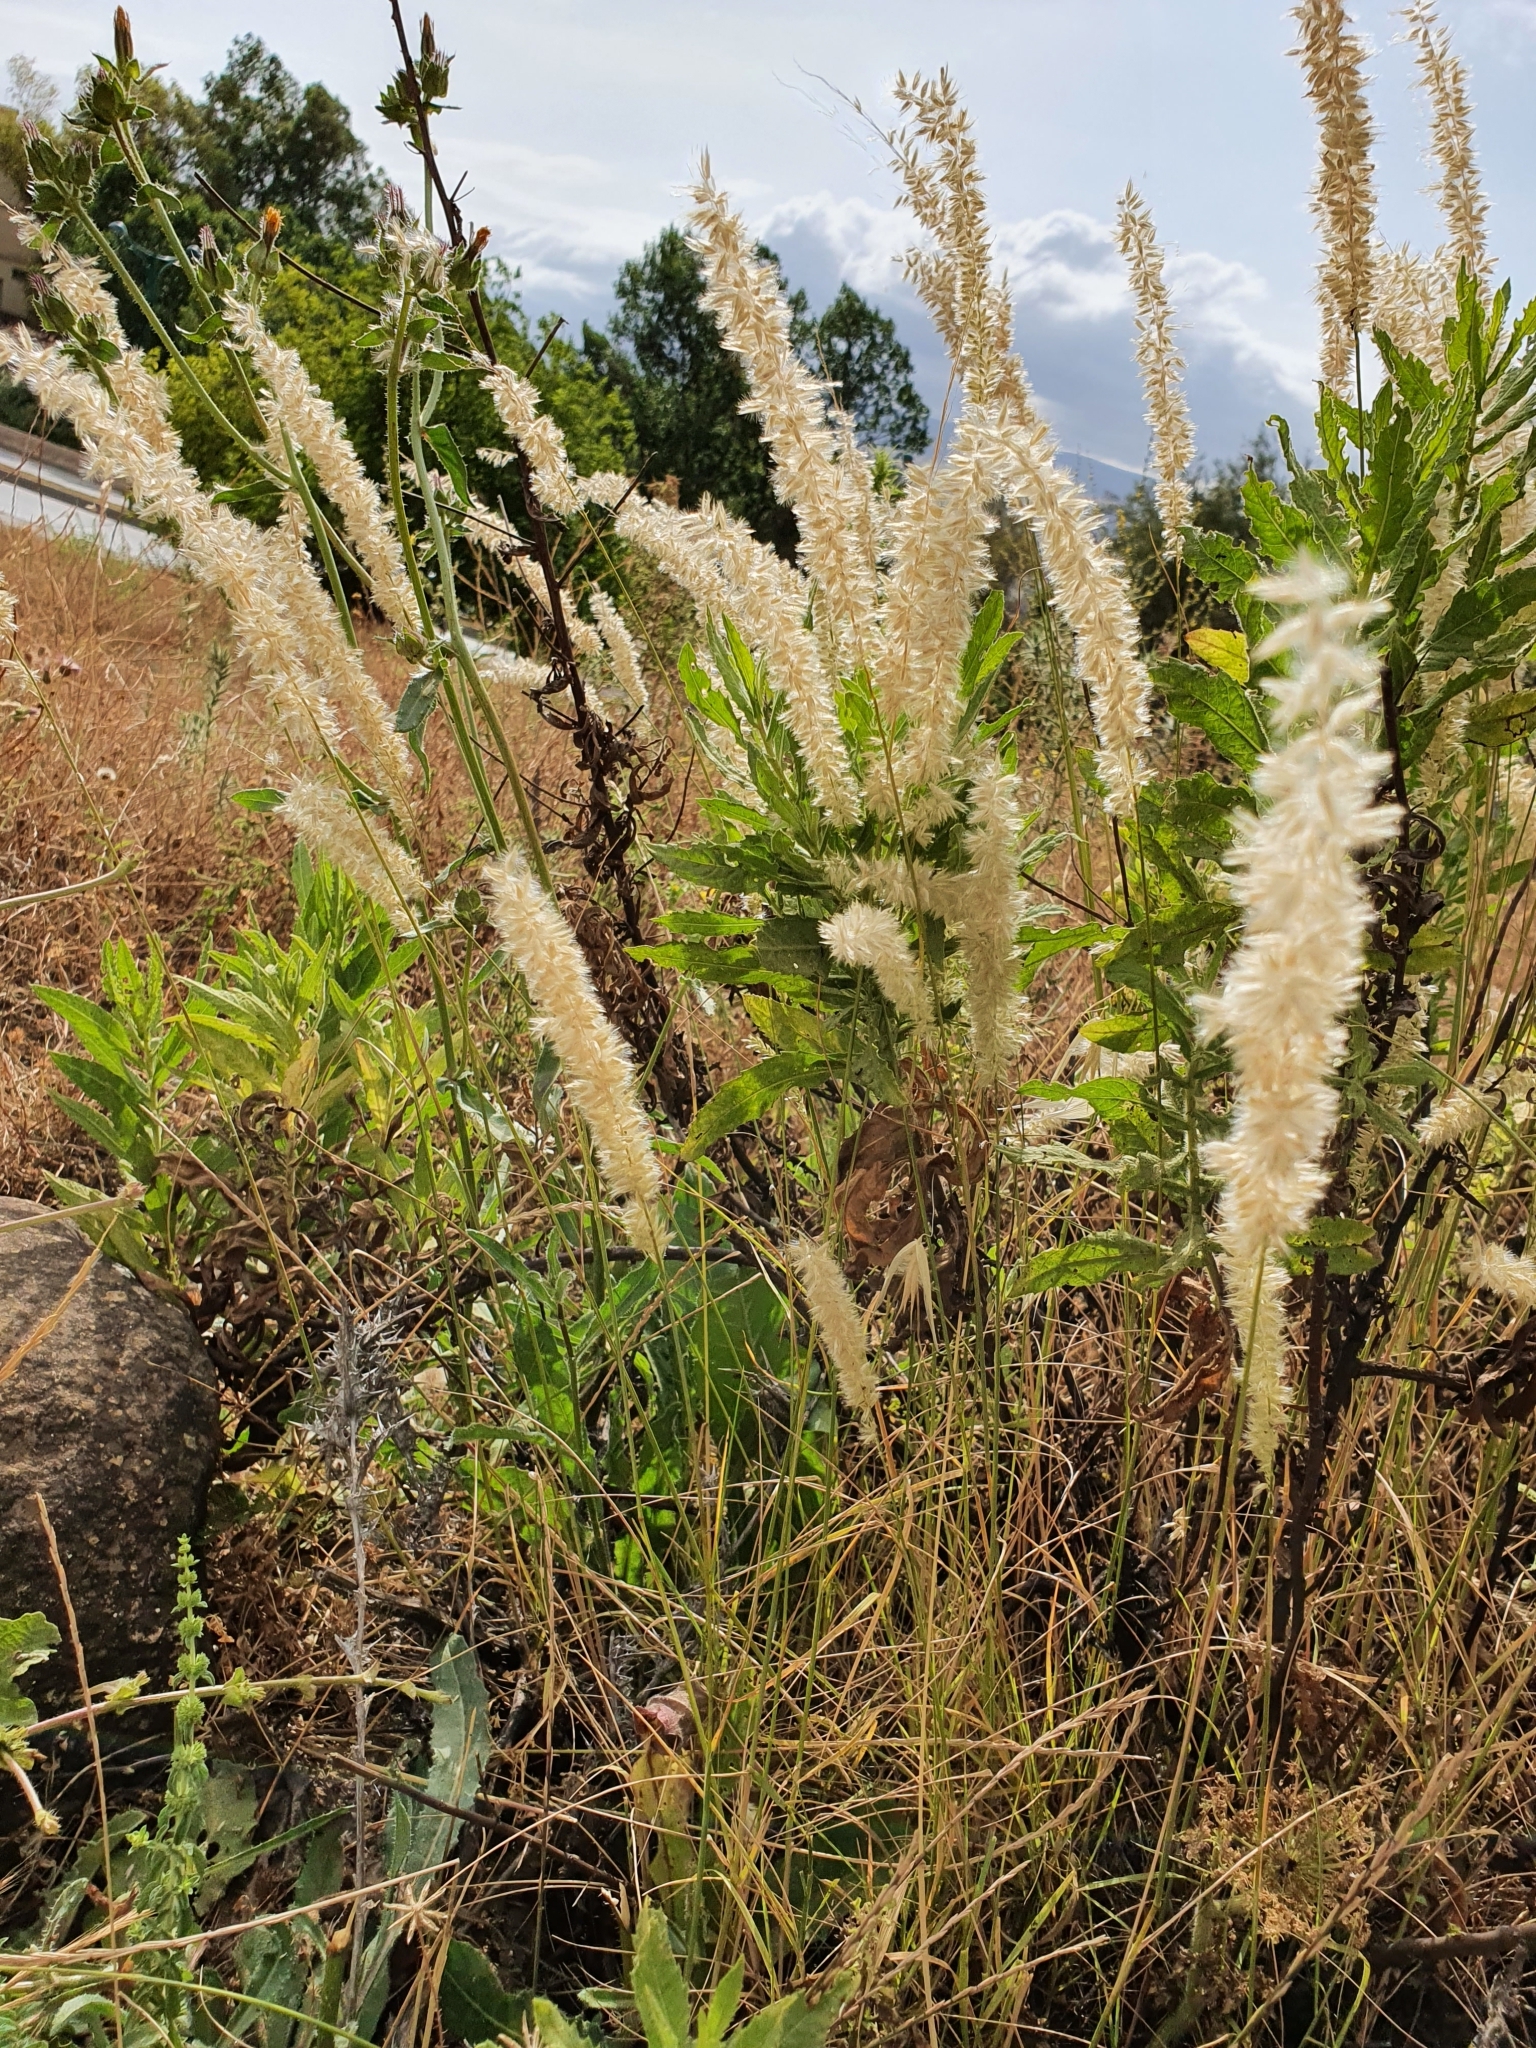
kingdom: Plantae
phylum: Tracheophyta
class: Liliopsida
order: Poales
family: Poaceae
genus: Melica
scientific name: Melica ciliata
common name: Hairy melicgrass
